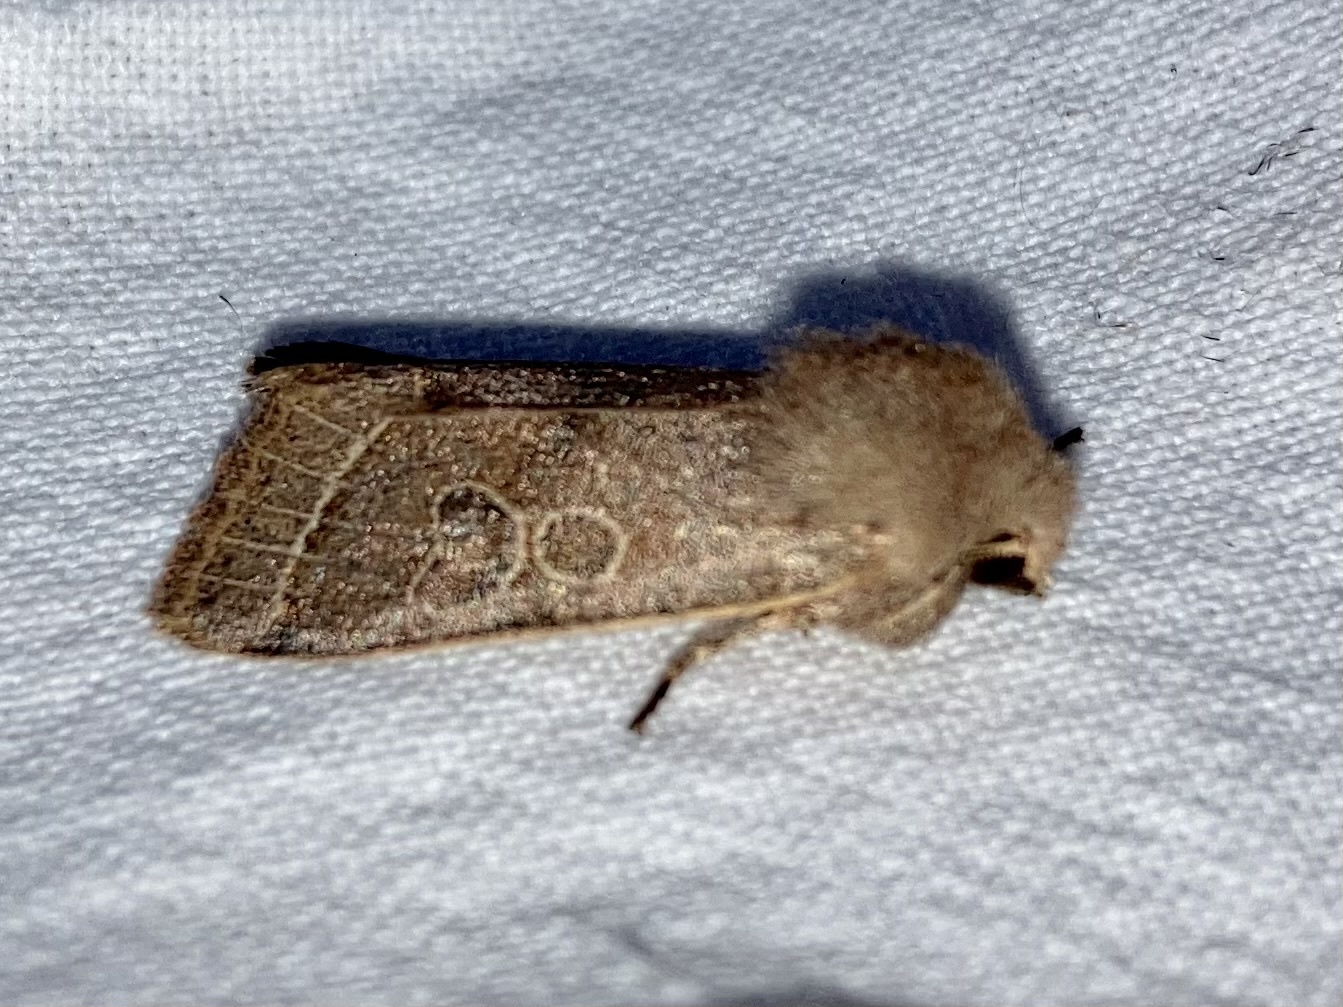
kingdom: Animalia
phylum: Arthropoda
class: Insecta
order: Lepidoptera
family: Noctuidae
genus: Orthosia
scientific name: Orthosia cerasi
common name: Common quaker
